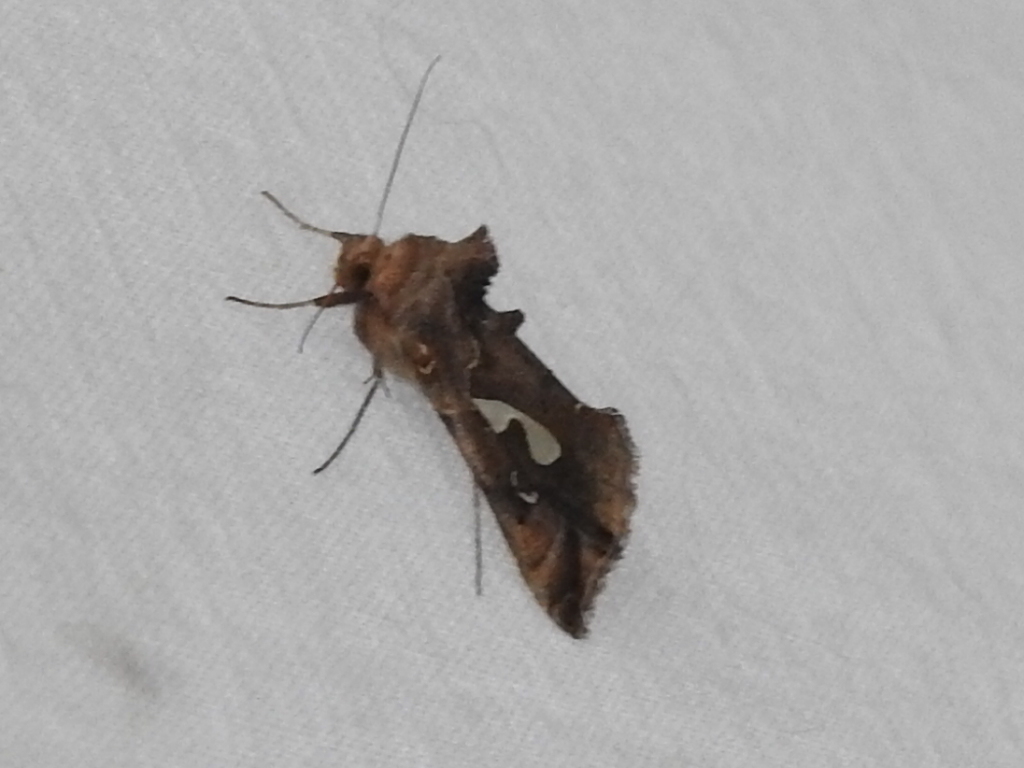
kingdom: Animalia
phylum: Arthropoda
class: Insecta
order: Lepidoptera
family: Noctuidae
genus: Megalographa
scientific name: Megalographa biloba
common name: Cutworm
